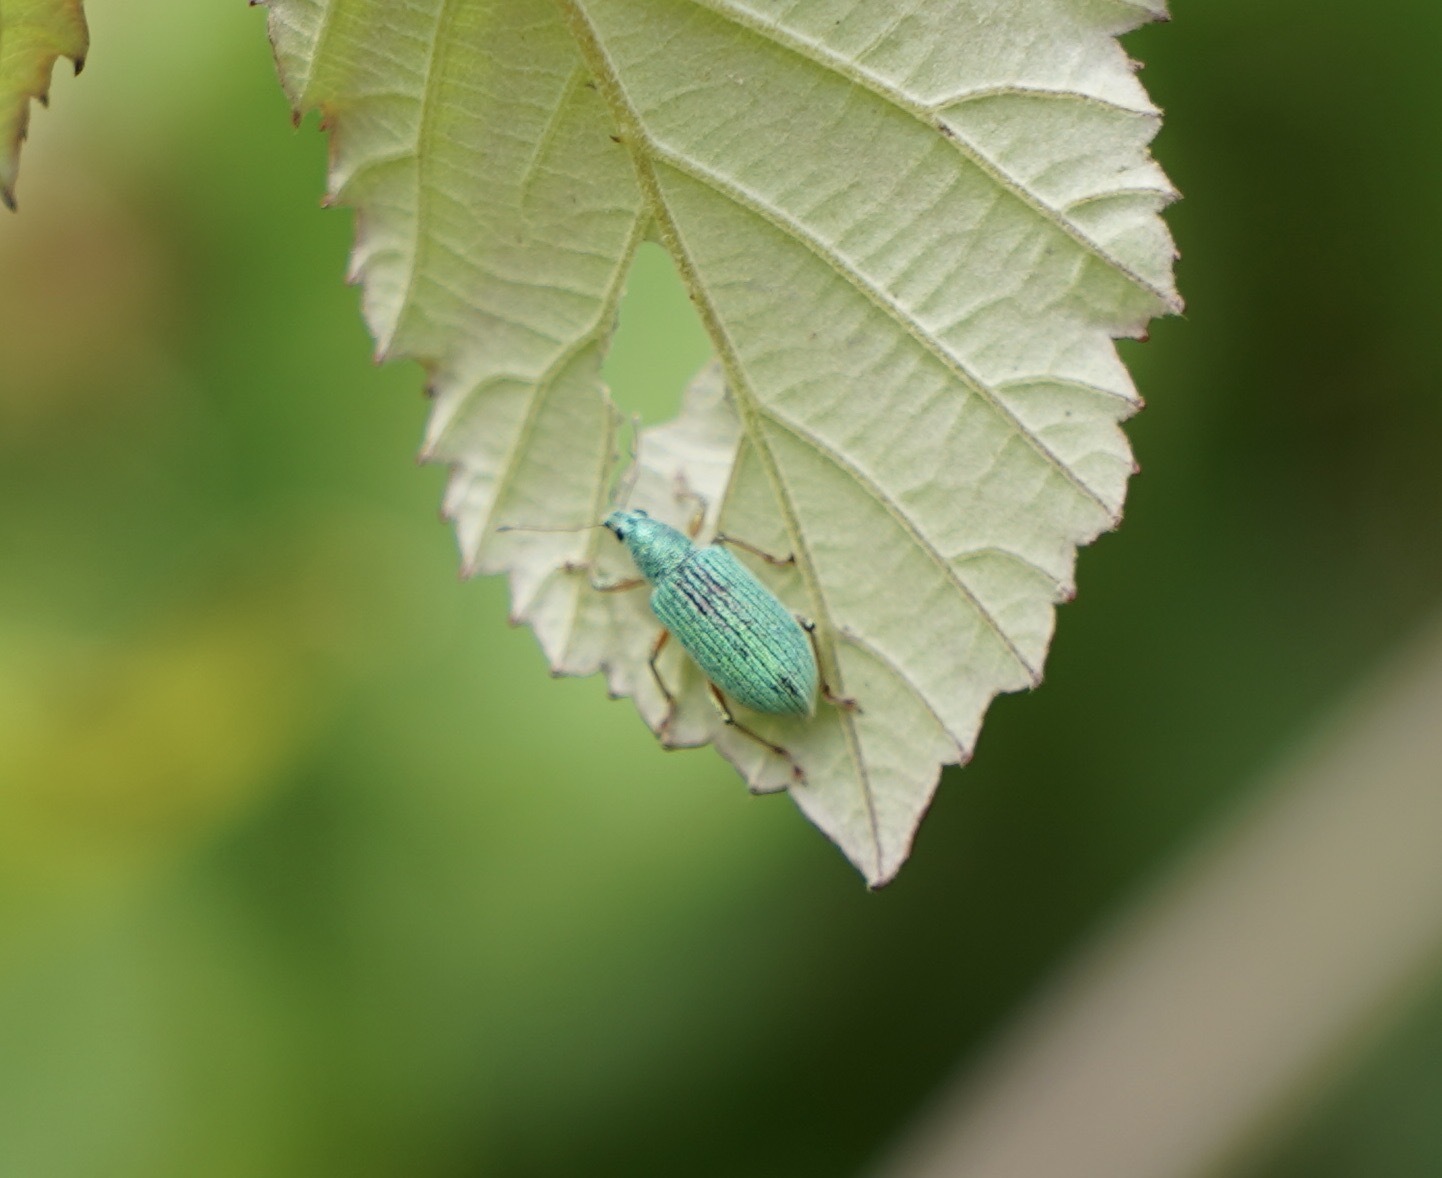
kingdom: Animalia
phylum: Arthropoda
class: Insecta
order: Coleoptera
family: Curculionidae
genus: Polydrusus
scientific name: Polydrusus formosus
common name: Weevil
